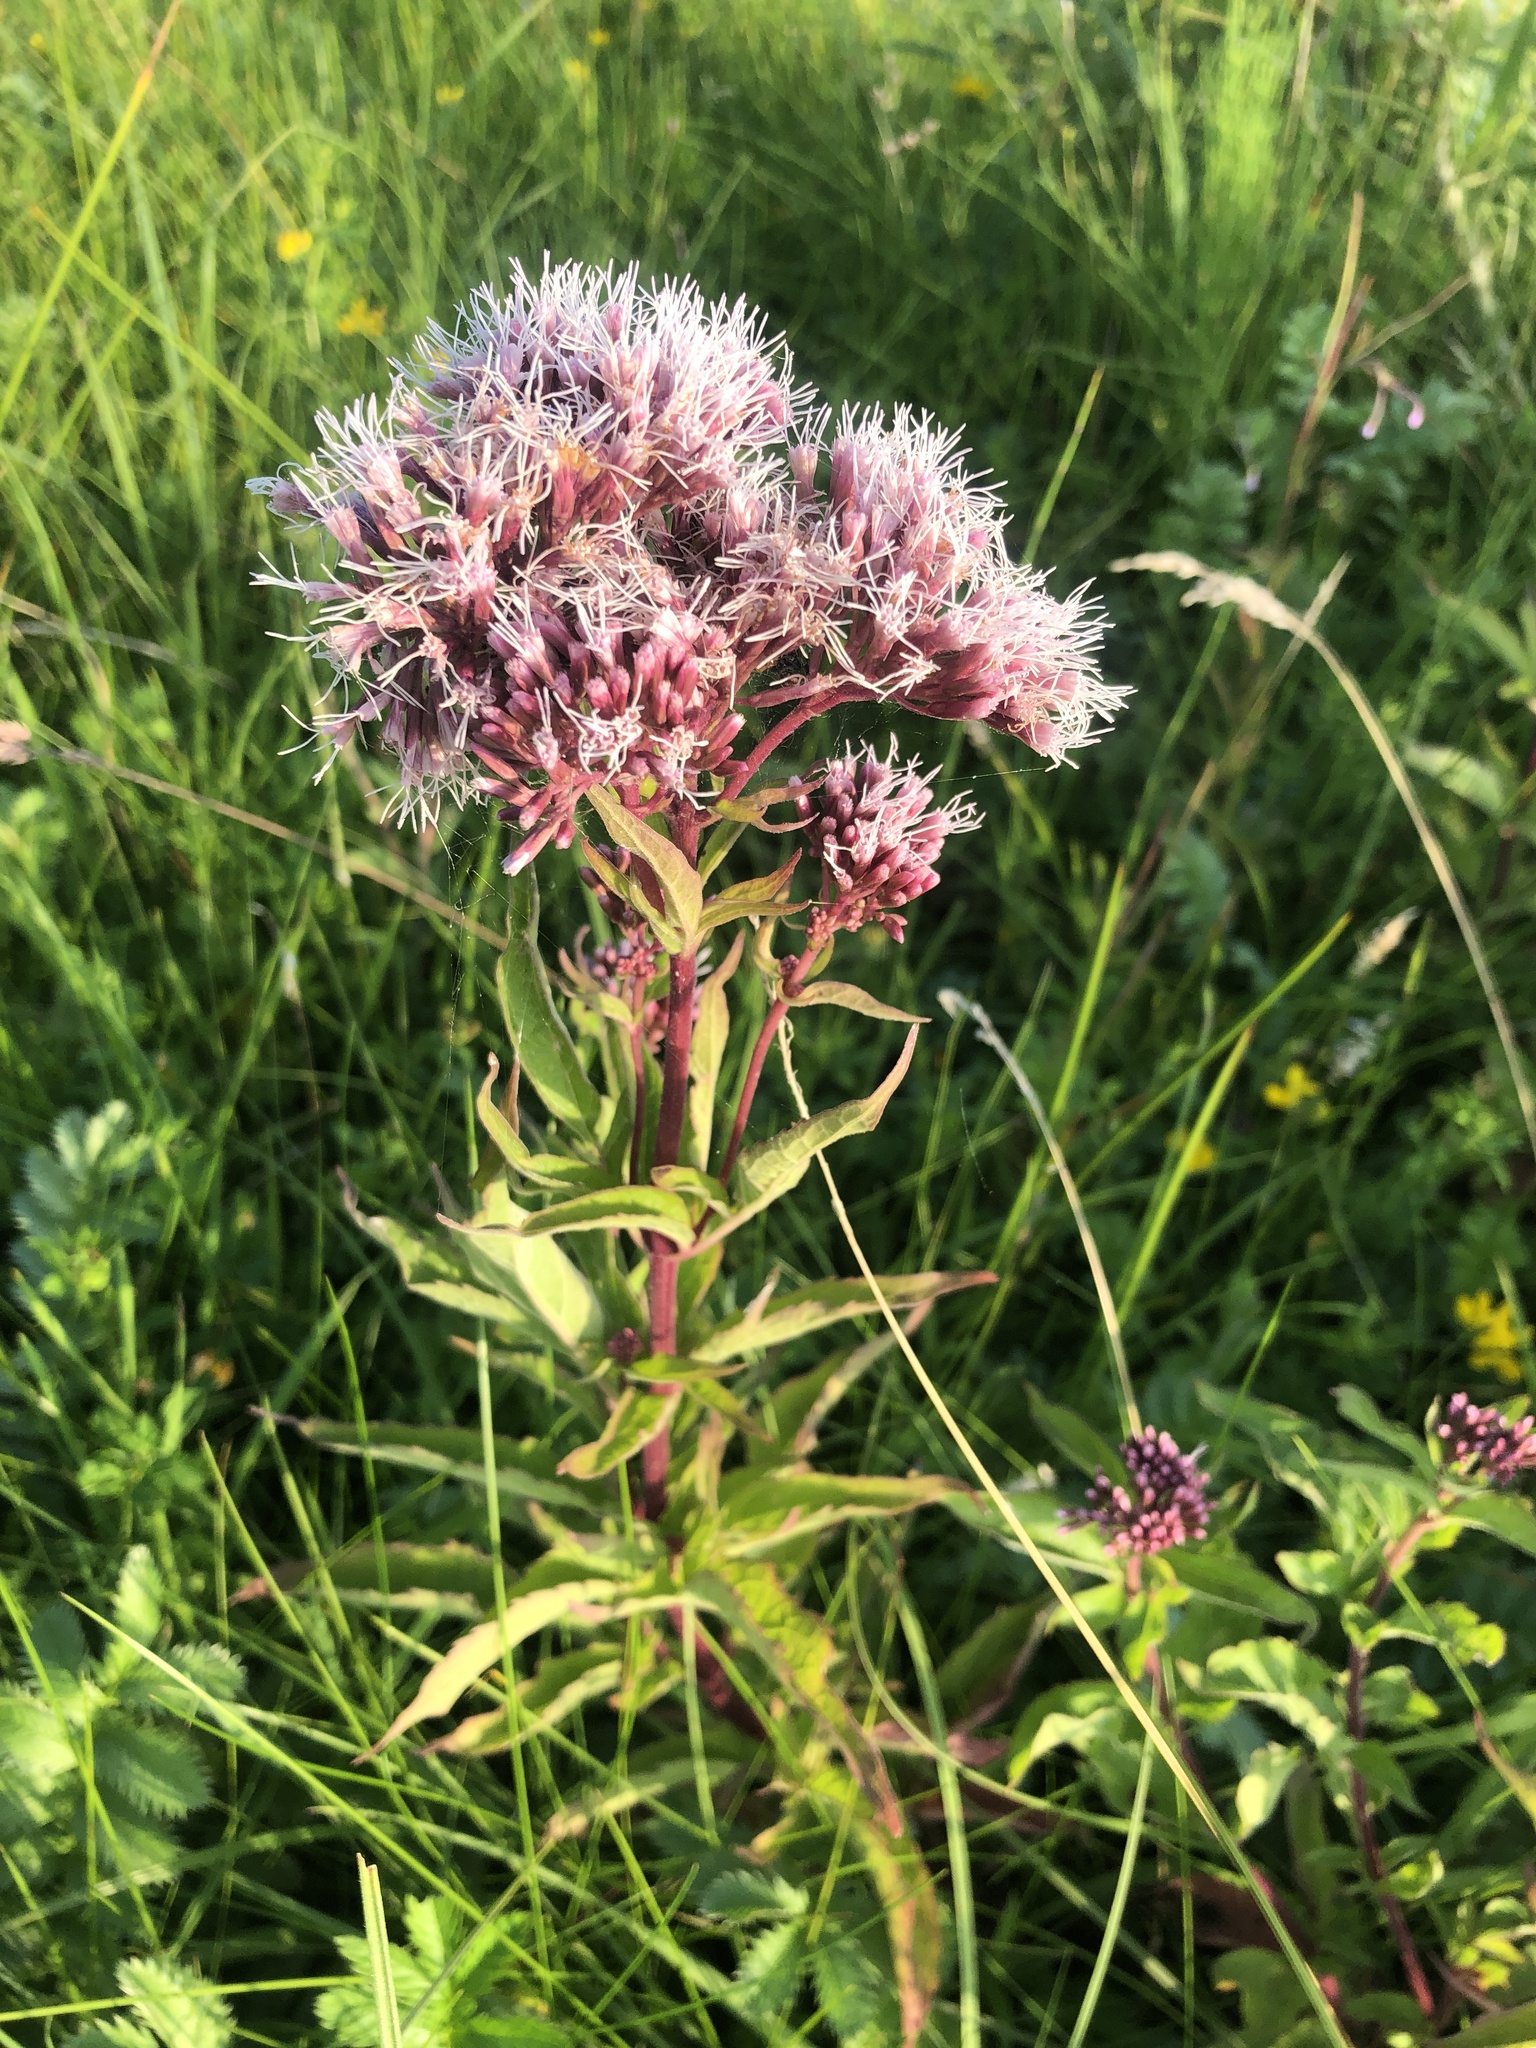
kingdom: Plantae
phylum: Tracheophyta
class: Magnoliopsida
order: Asterales
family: Asteraceae
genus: Eupatorium
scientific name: Eupatorium cannabinum
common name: Hemp-agrimony
